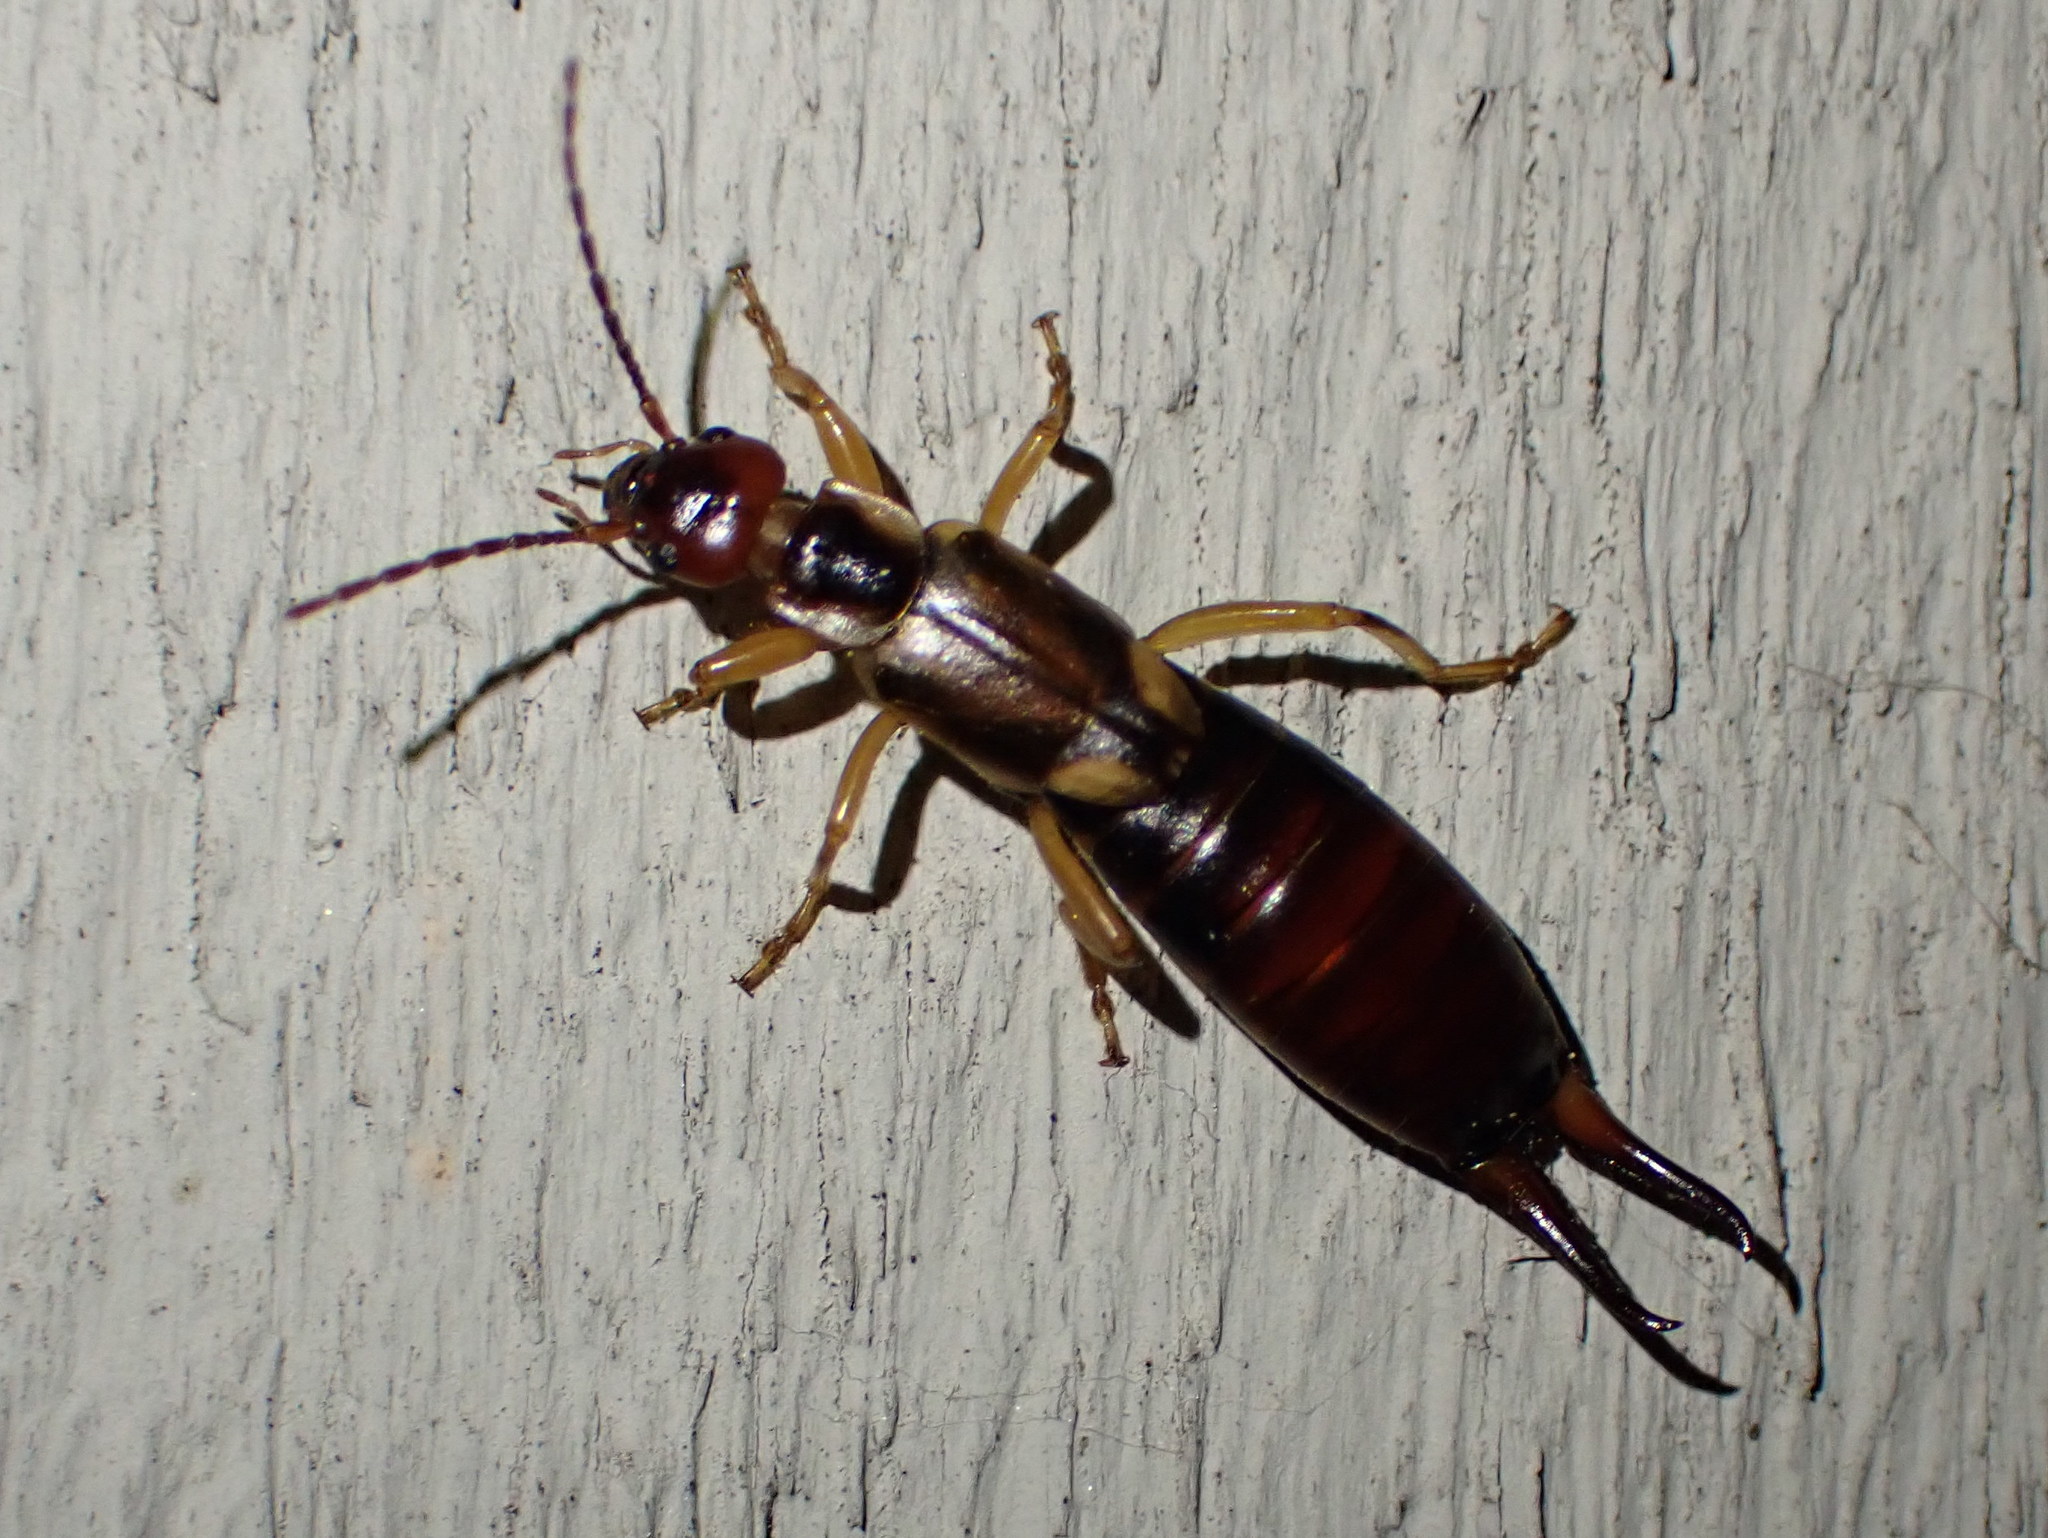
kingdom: Animalia
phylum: Arthropoda
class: Insecta
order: Dermaptera
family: Forficulidae
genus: Forficula
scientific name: Forficula
